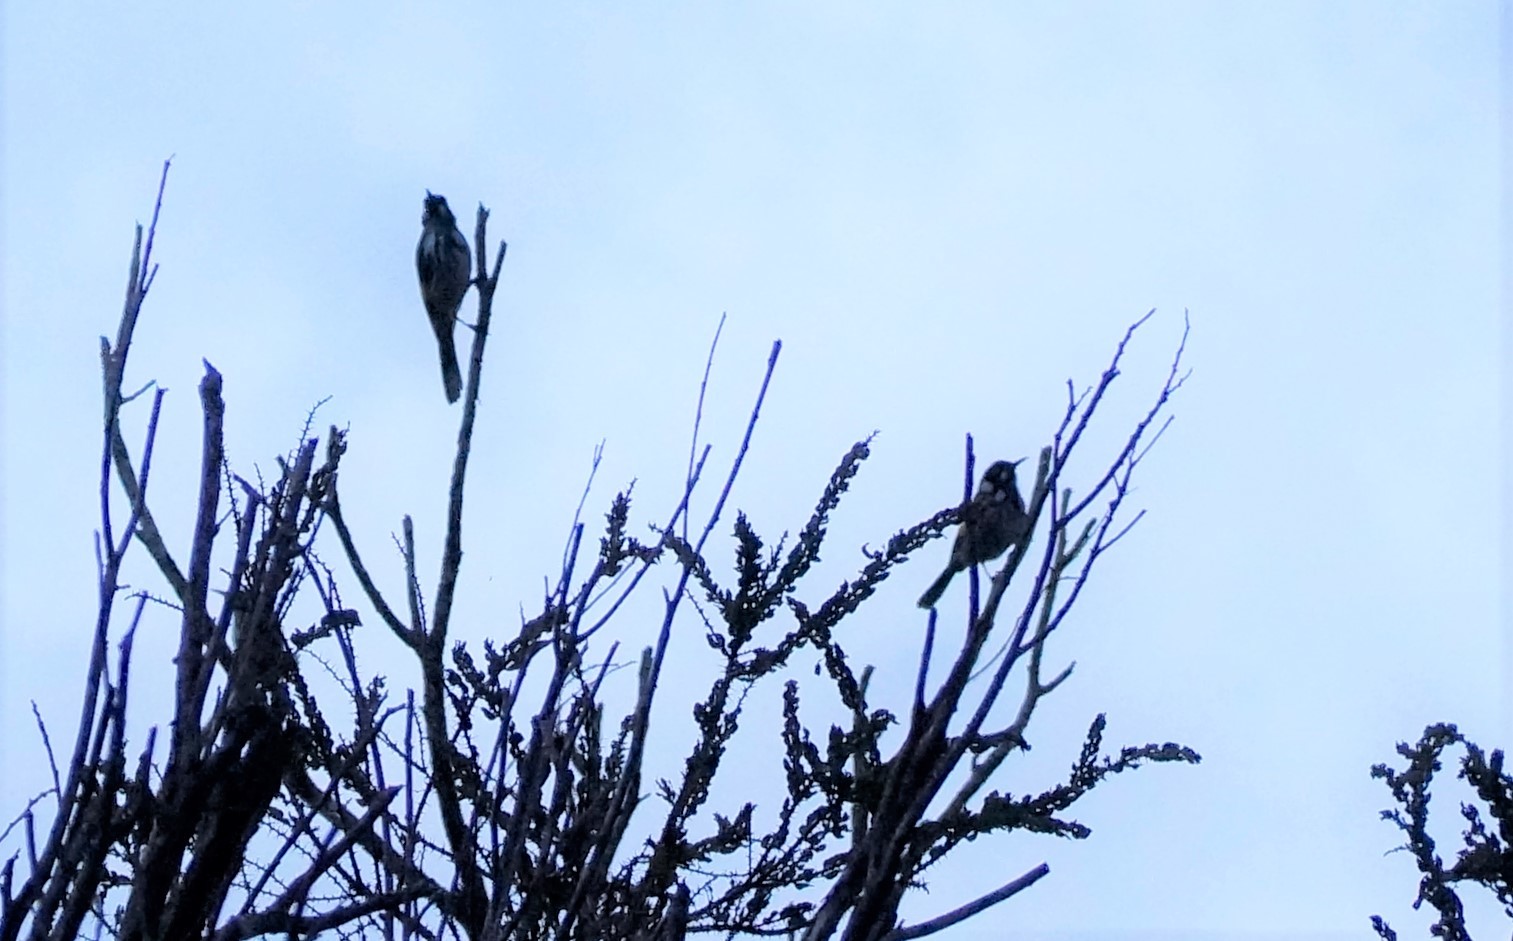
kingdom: Animalia
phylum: Chordata
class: Aves
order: Passeriformes
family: Meliphagidae
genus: Phylidonyris
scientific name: Phylidonyris novaehollandiae
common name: New holland honeyeater
